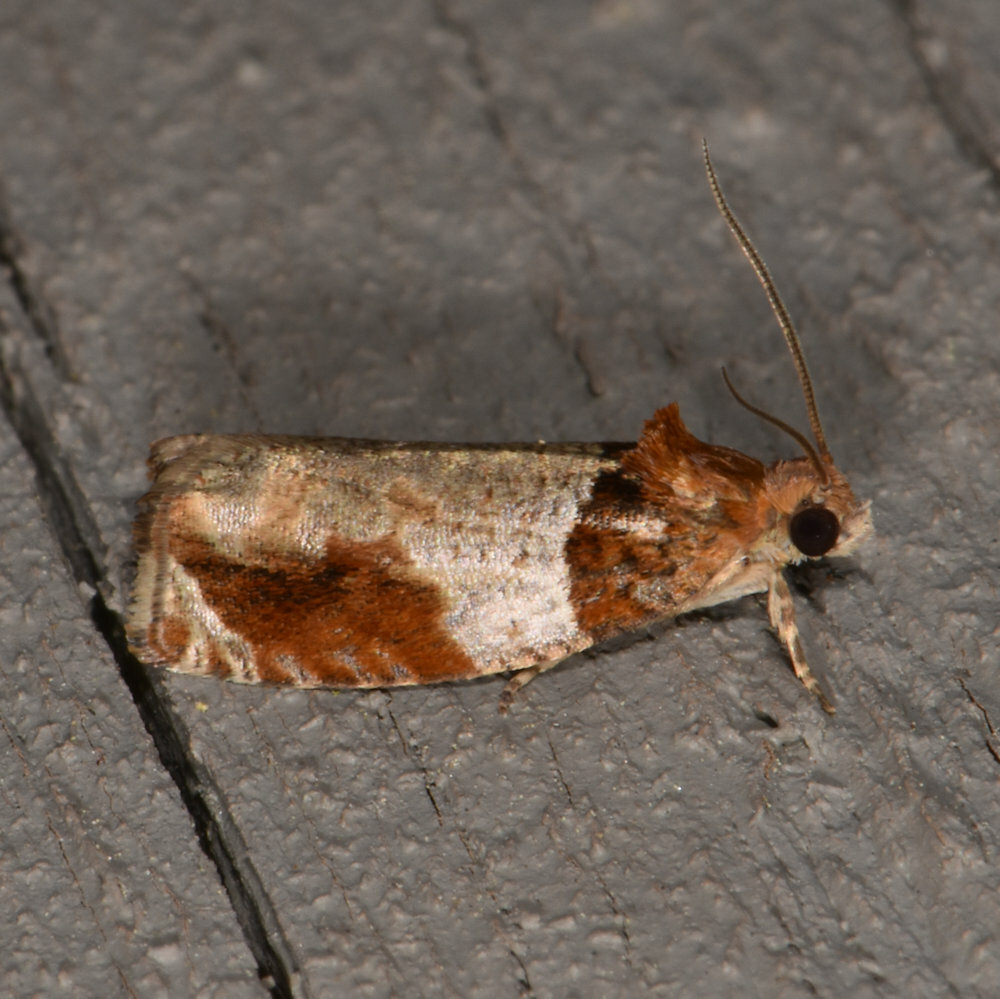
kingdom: Animalia
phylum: Arthropoda
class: Insecta
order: Lepidoptera
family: Tortricidae
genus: Olethreutes
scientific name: Olethreutes ferriferana
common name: Hydrangea leaftier moth
